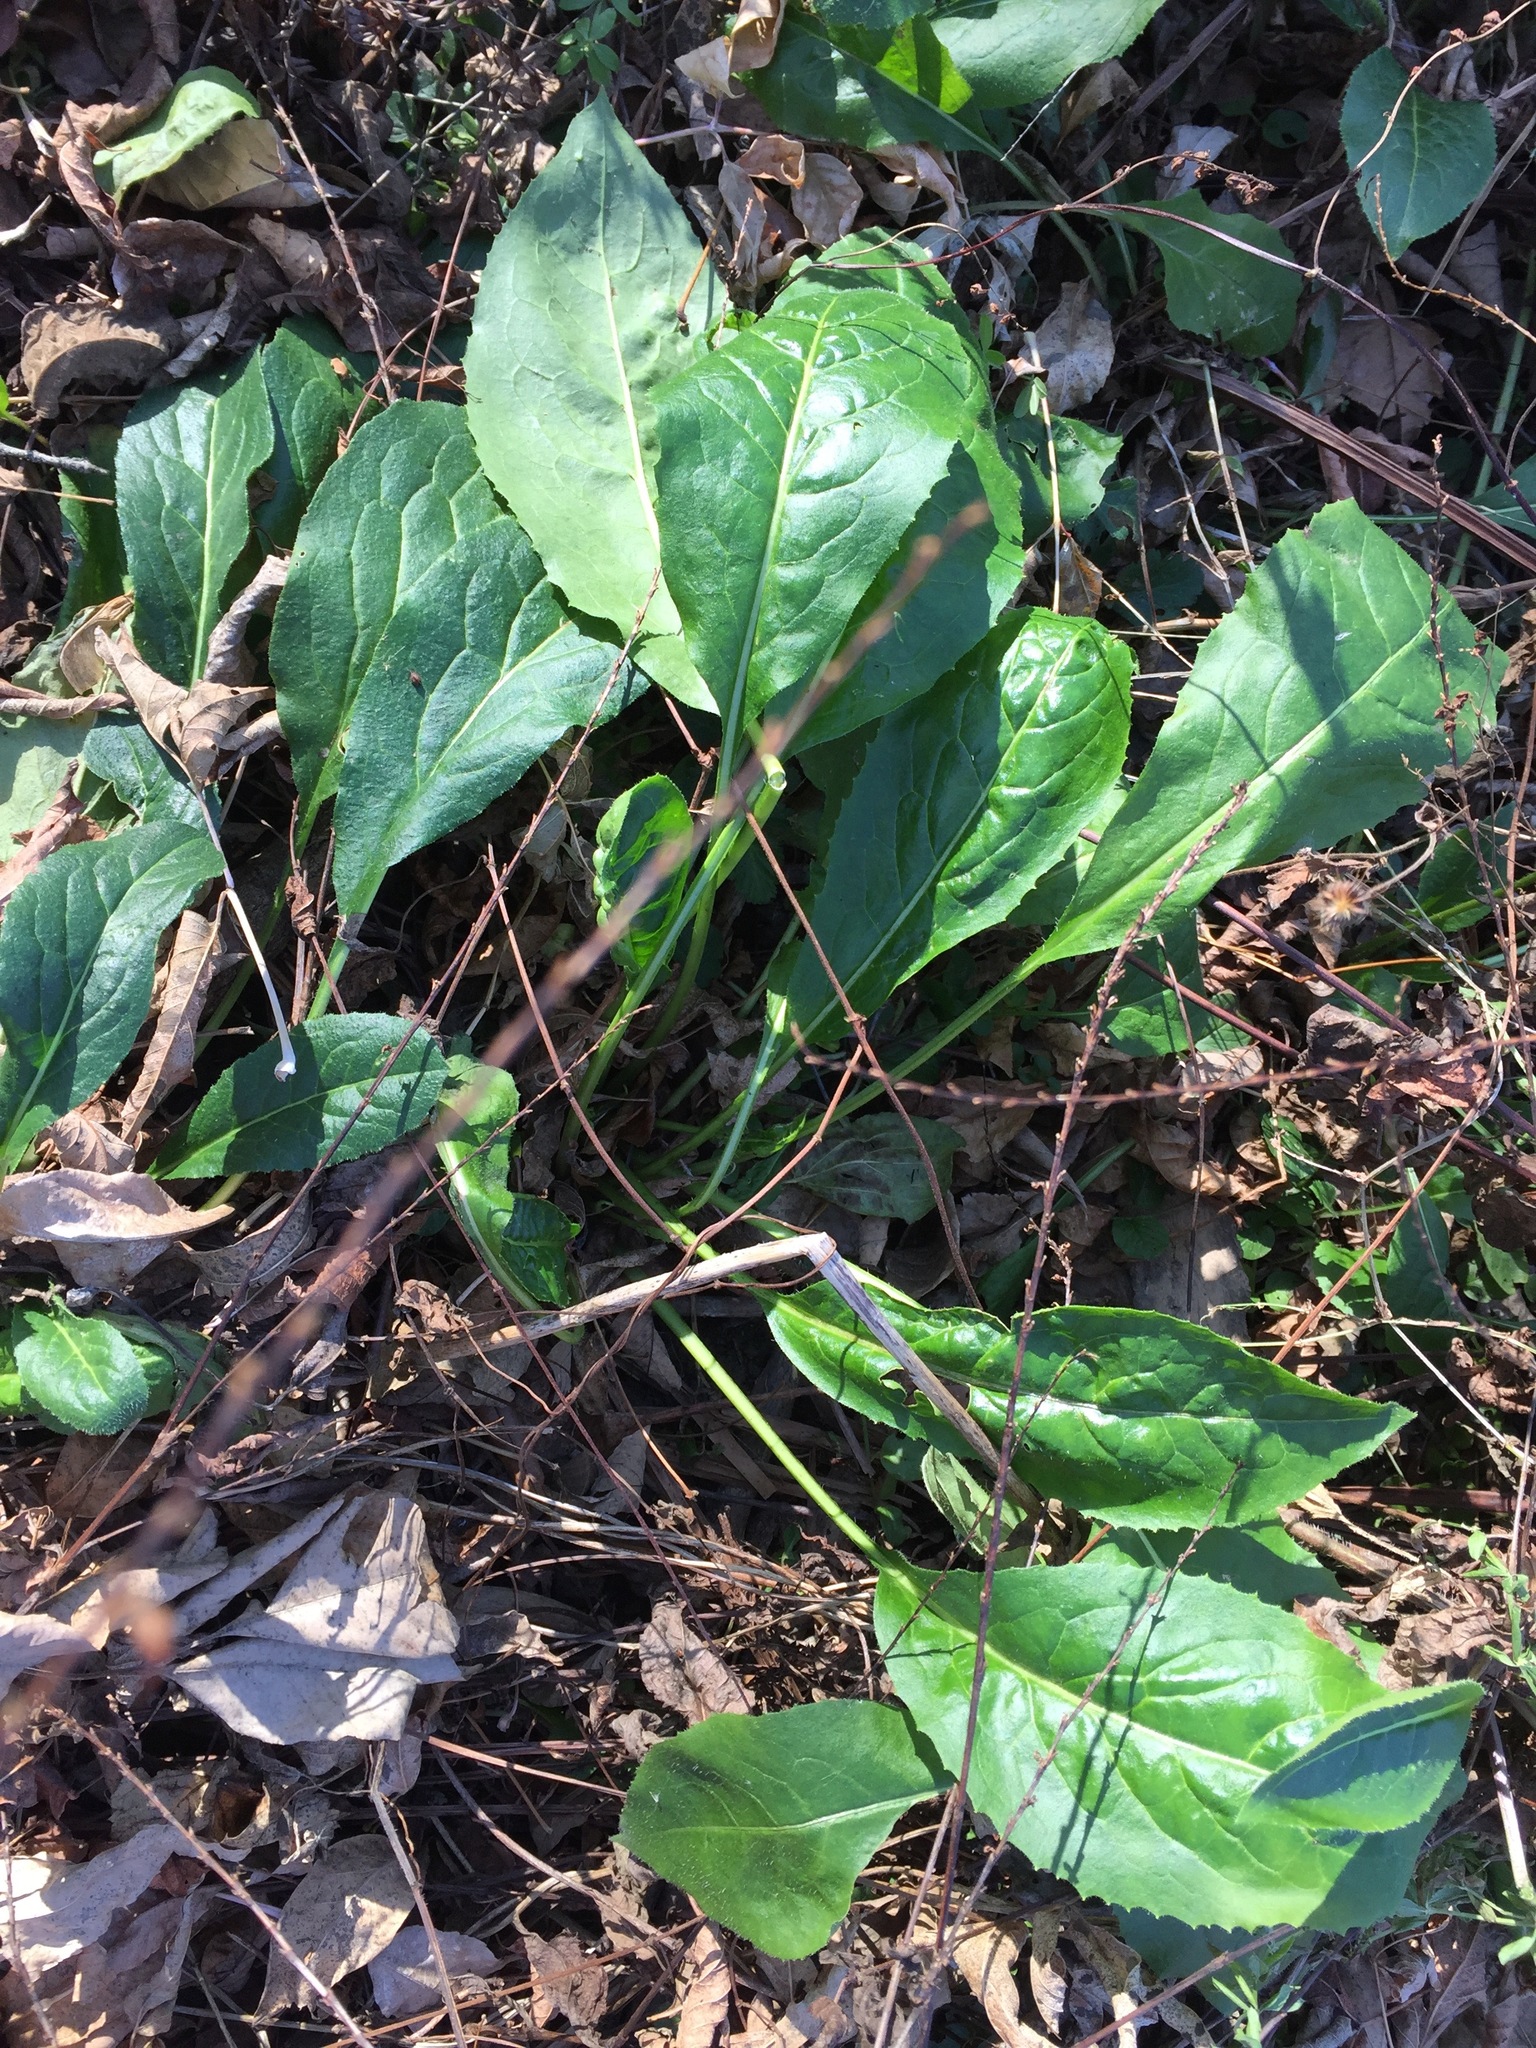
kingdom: Plantae
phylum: Tracheophyta
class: Magnoliopsida
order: Brassicales
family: Brassicaceae
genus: Hesperis
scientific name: Hesperis matronalis
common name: Dame's-violet
